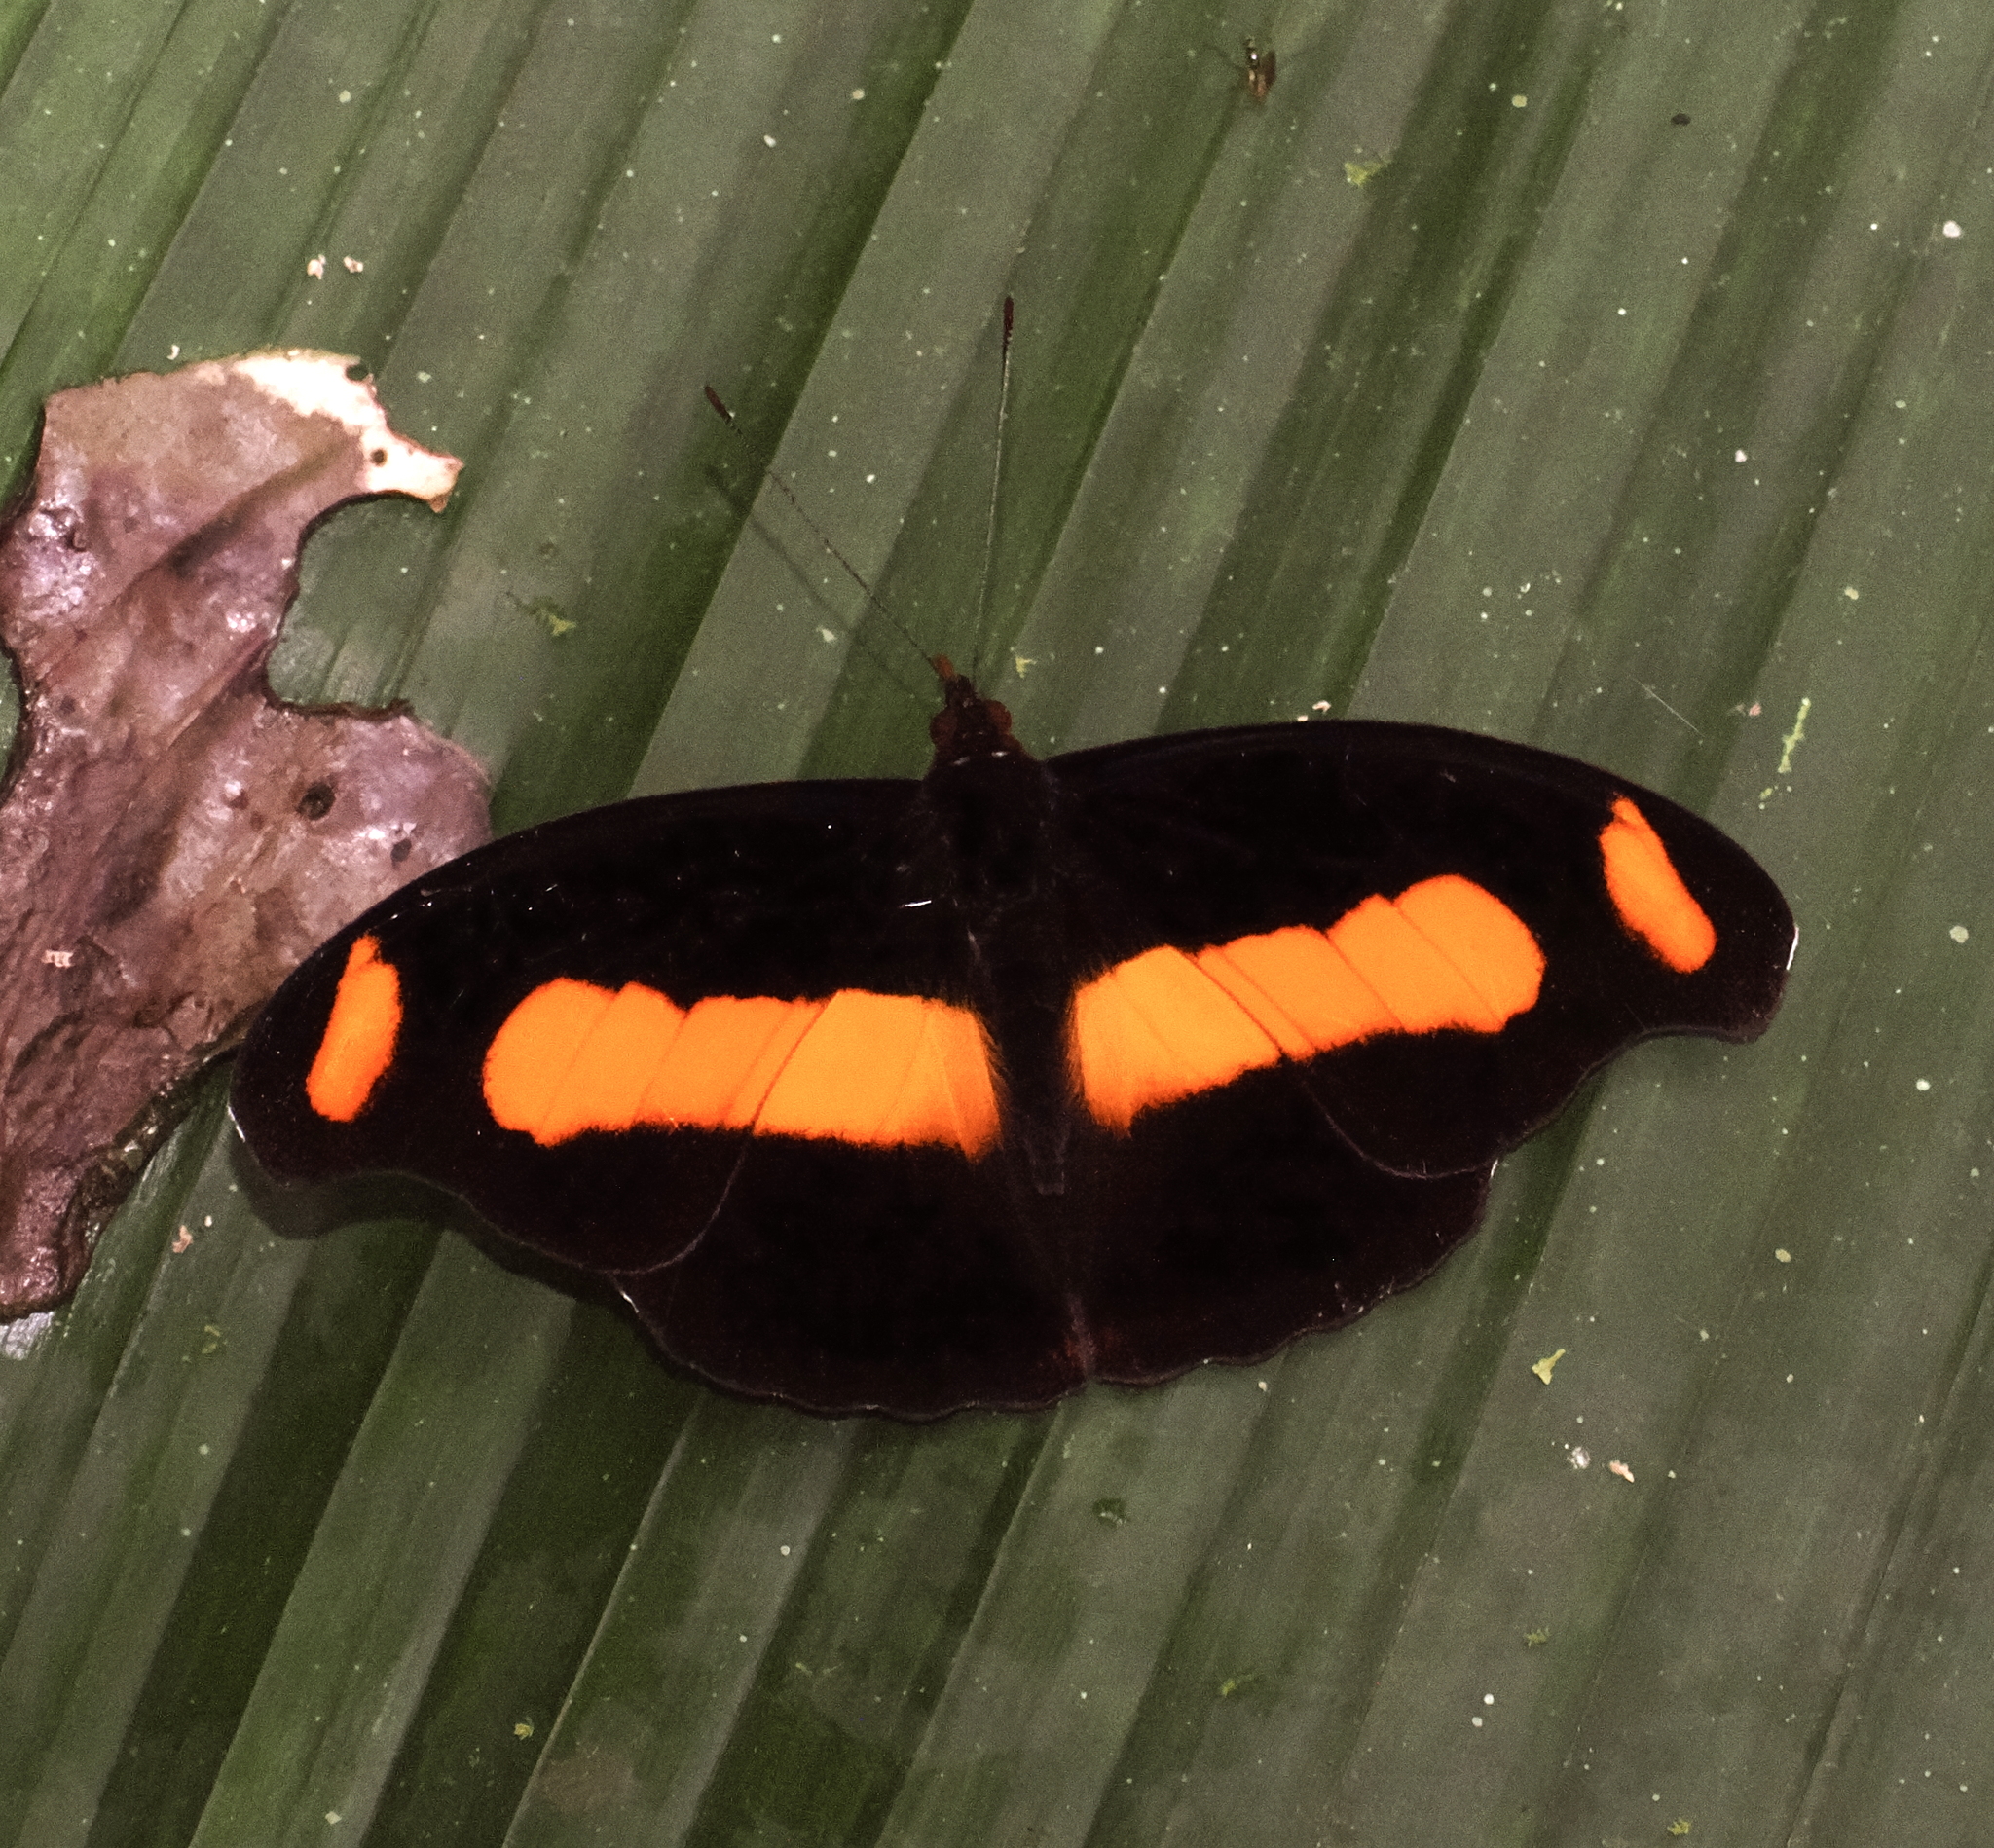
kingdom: Animalia
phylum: Arthropoda
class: Insecta
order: Lepidoptera
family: Nymphalidae
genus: Catonephele
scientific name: Catonephele chromis
